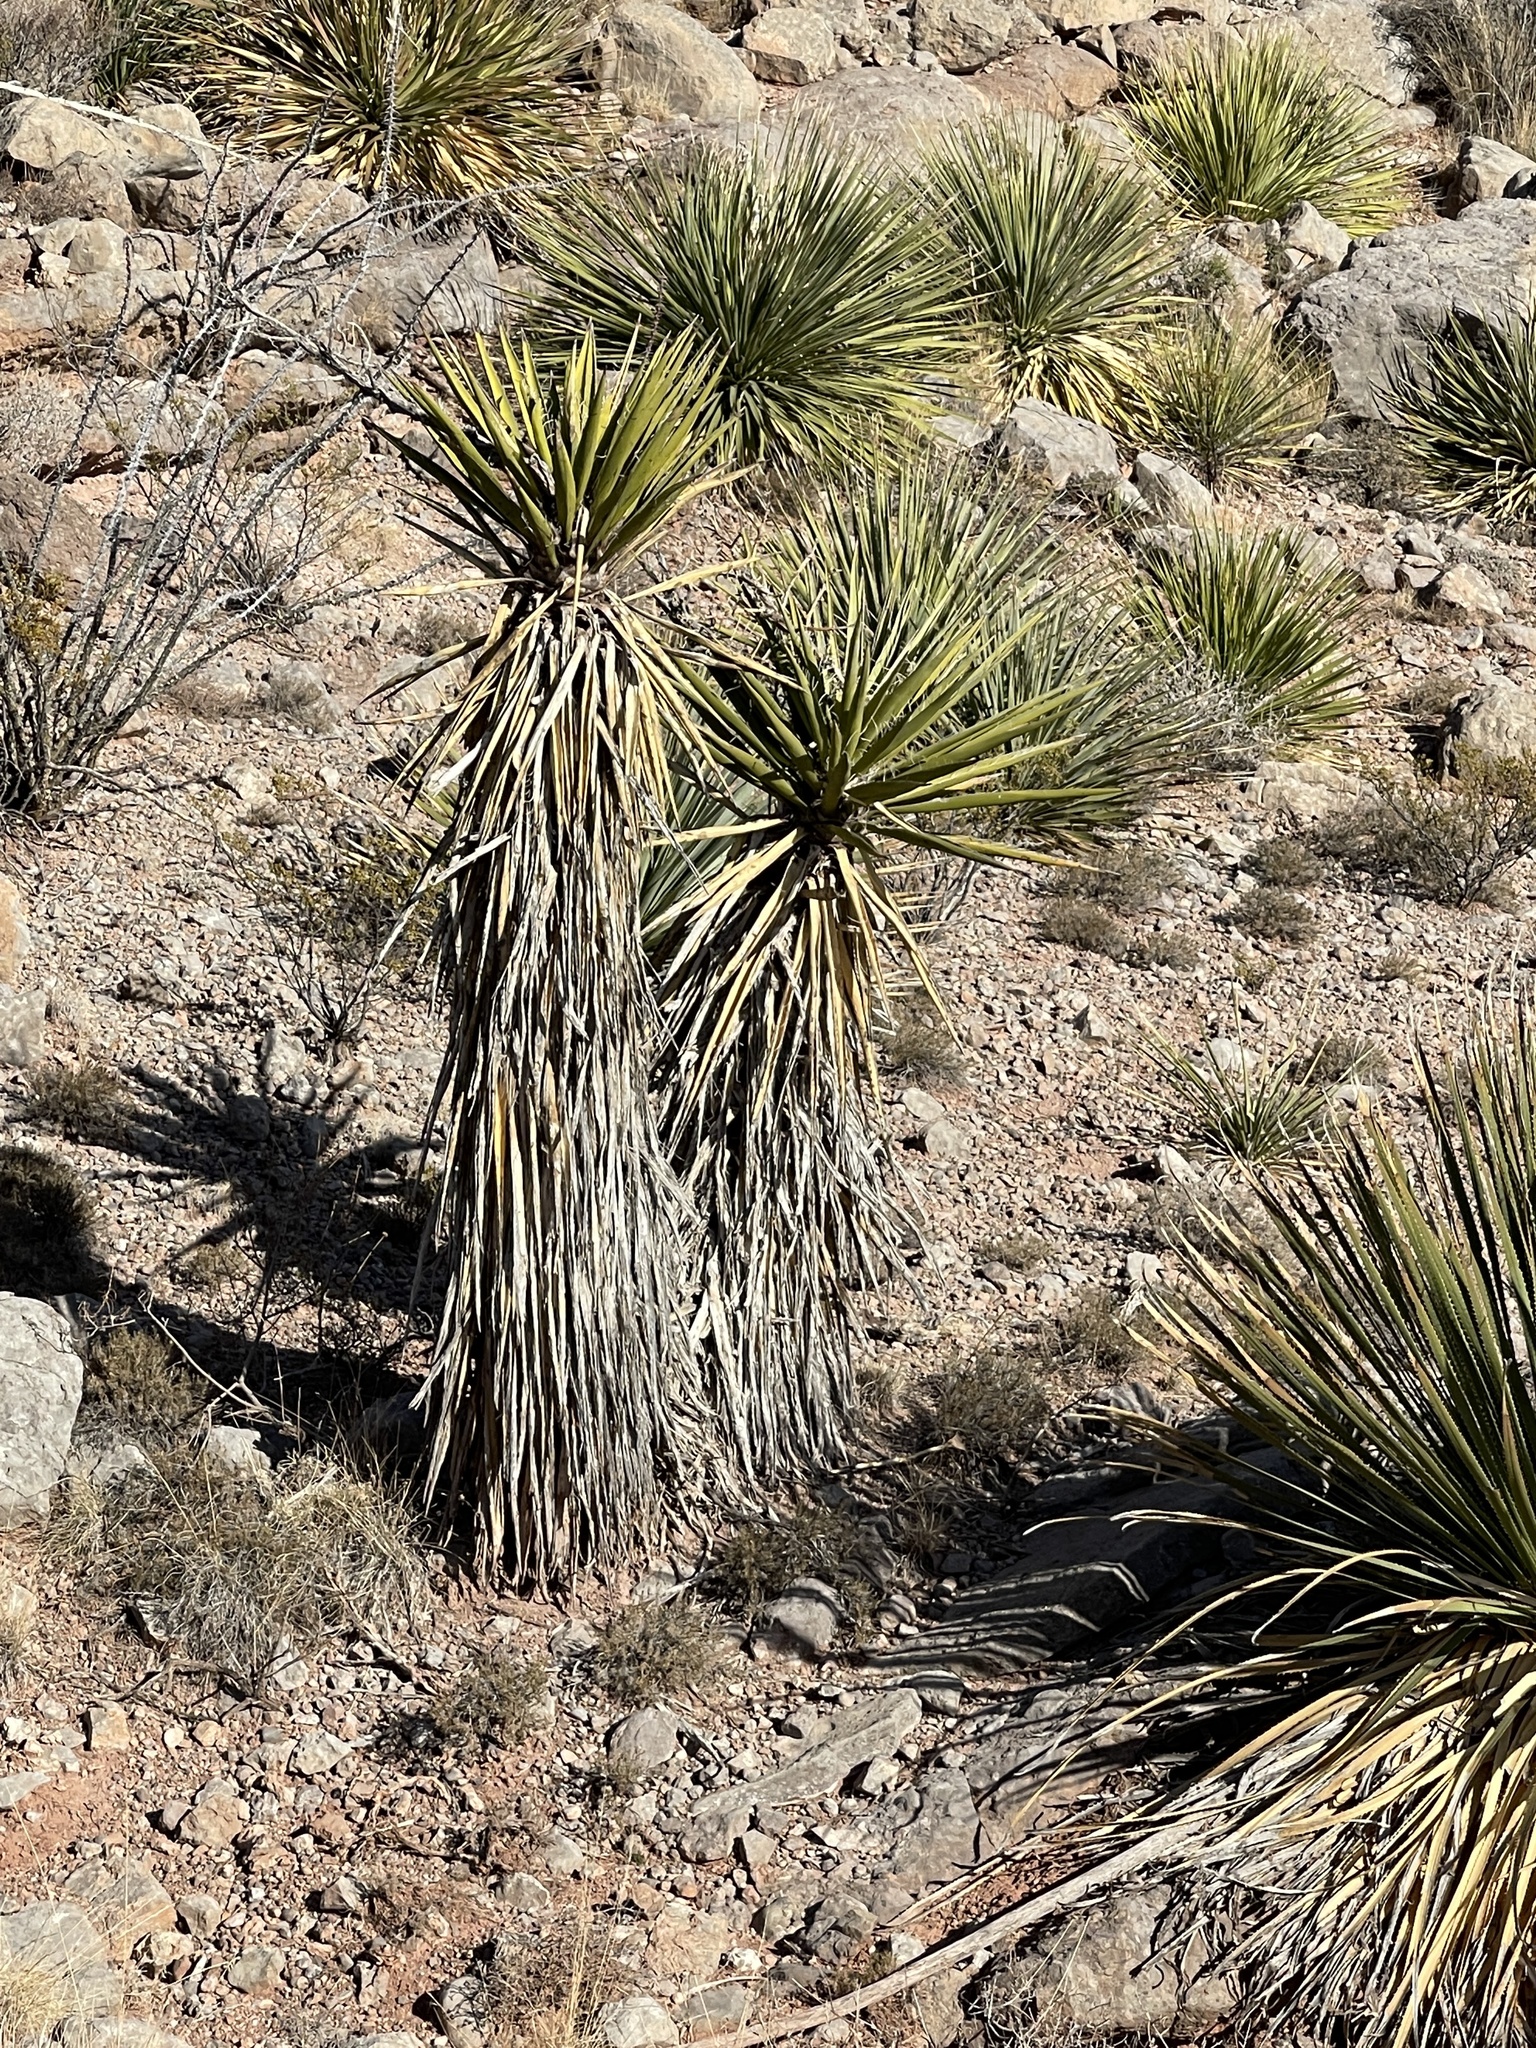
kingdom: Plantae
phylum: Tracheophyta
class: Liliopsida
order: Asparagales
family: Asparagaceae
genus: Yucca
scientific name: Yucca treculiana
